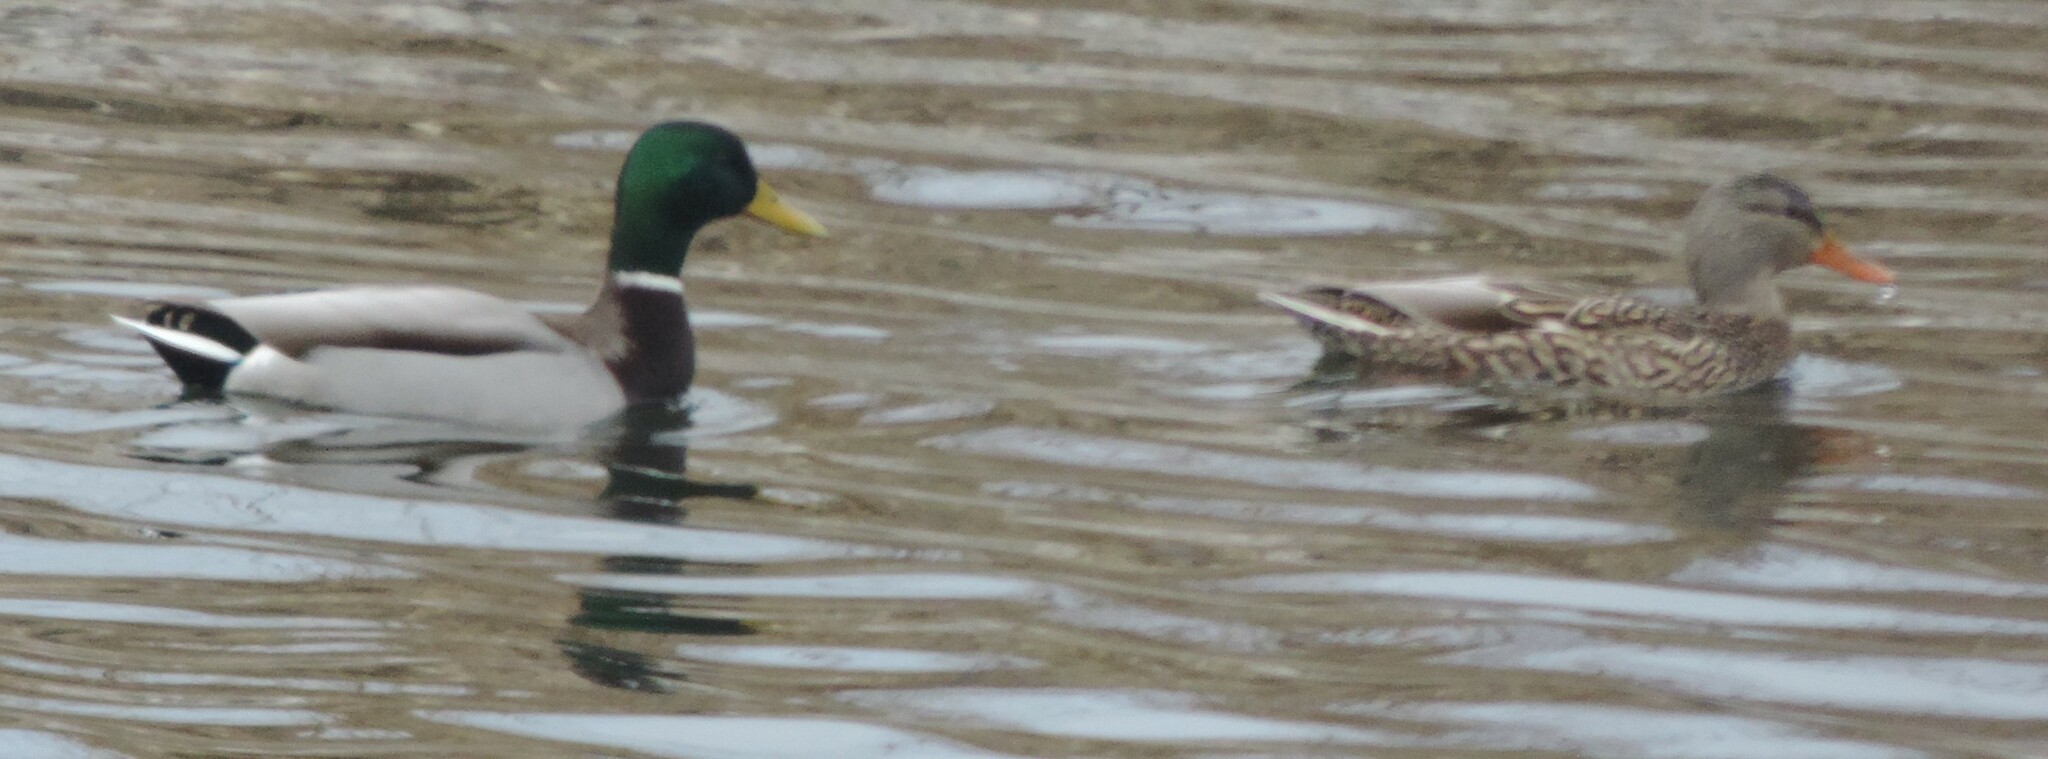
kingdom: Animalia
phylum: Chordata
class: Aves
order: Anseriformes
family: Anatidae
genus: Anas
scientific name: Anas platyrhynchos
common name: Mallard
